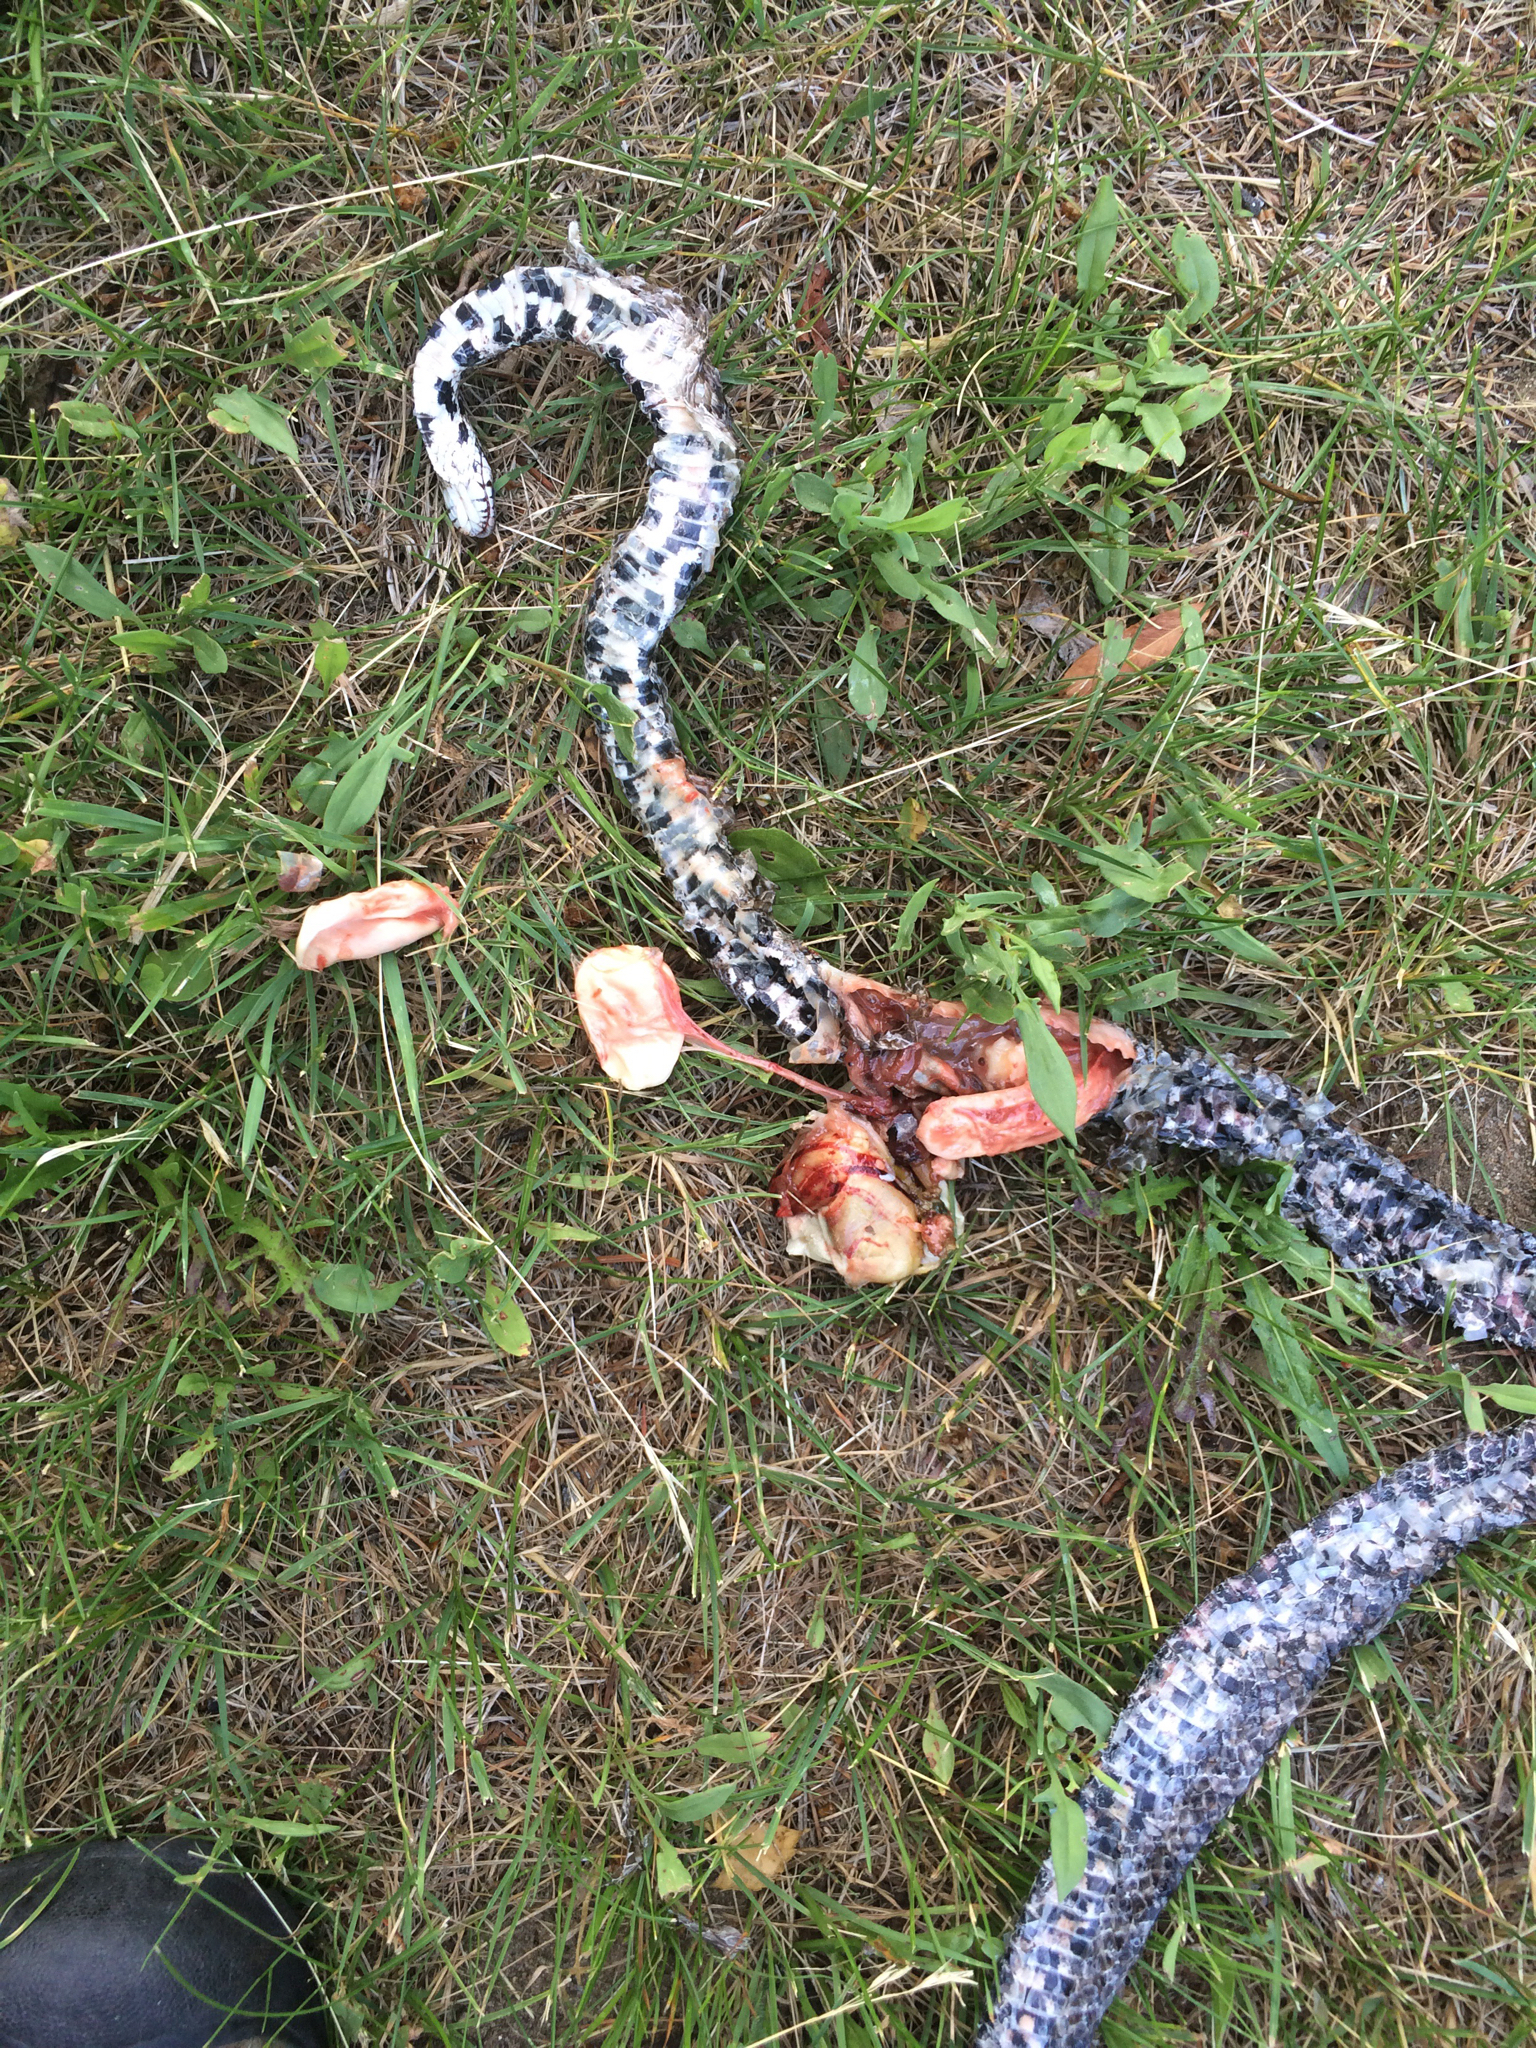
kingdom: Animalia
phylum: Chordata
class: Squamata
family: Colubridae
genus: Lampropeltis
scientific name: Lampropeltis triangulum
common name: Eastern milksnake
